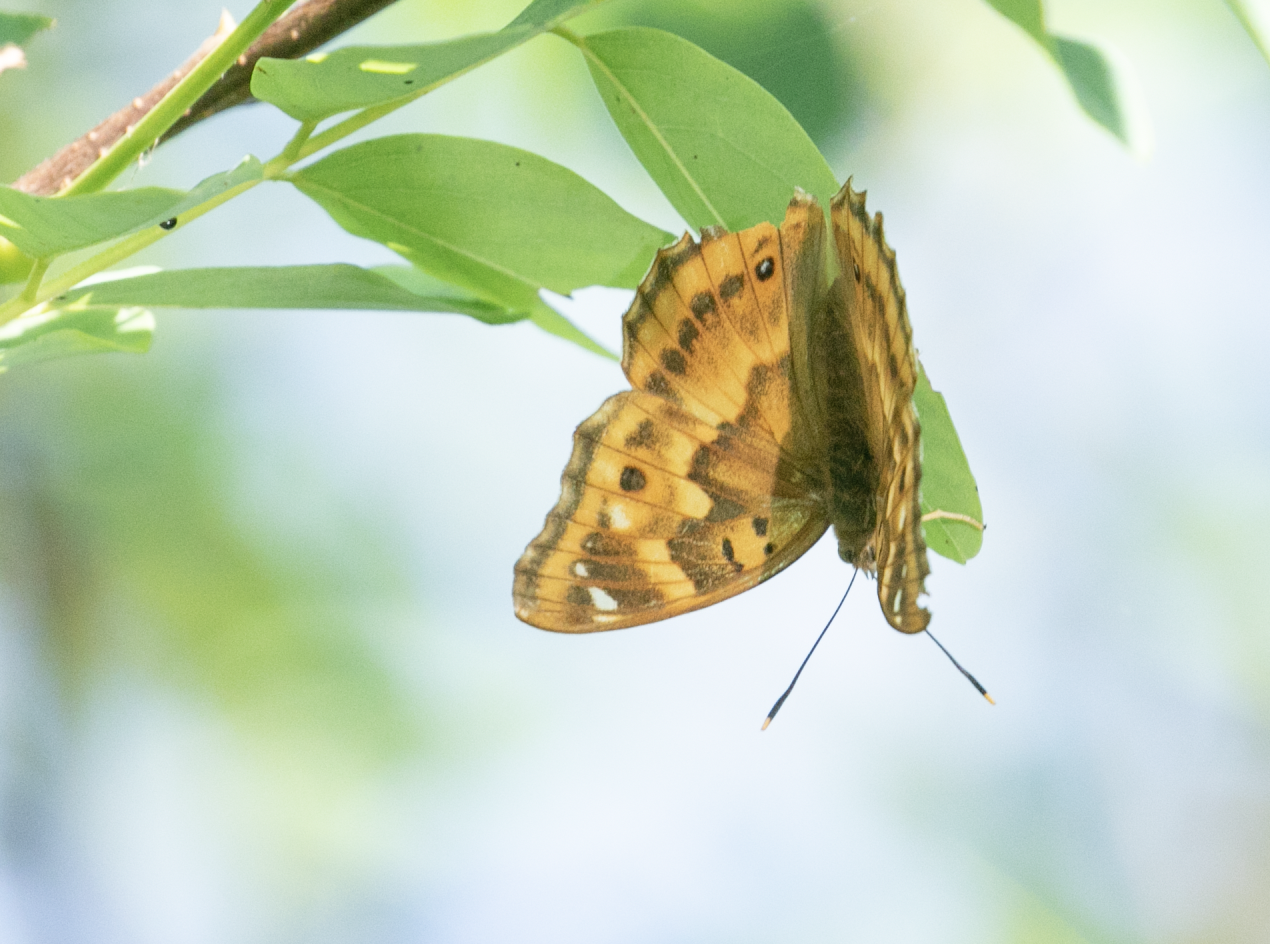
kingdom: Animalia
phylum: Arthropoda
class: Insecta
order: Lepidoptera
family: Nymphalidae
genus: Apatura
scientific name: Apatura ilia
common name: Lesser purple emperor
